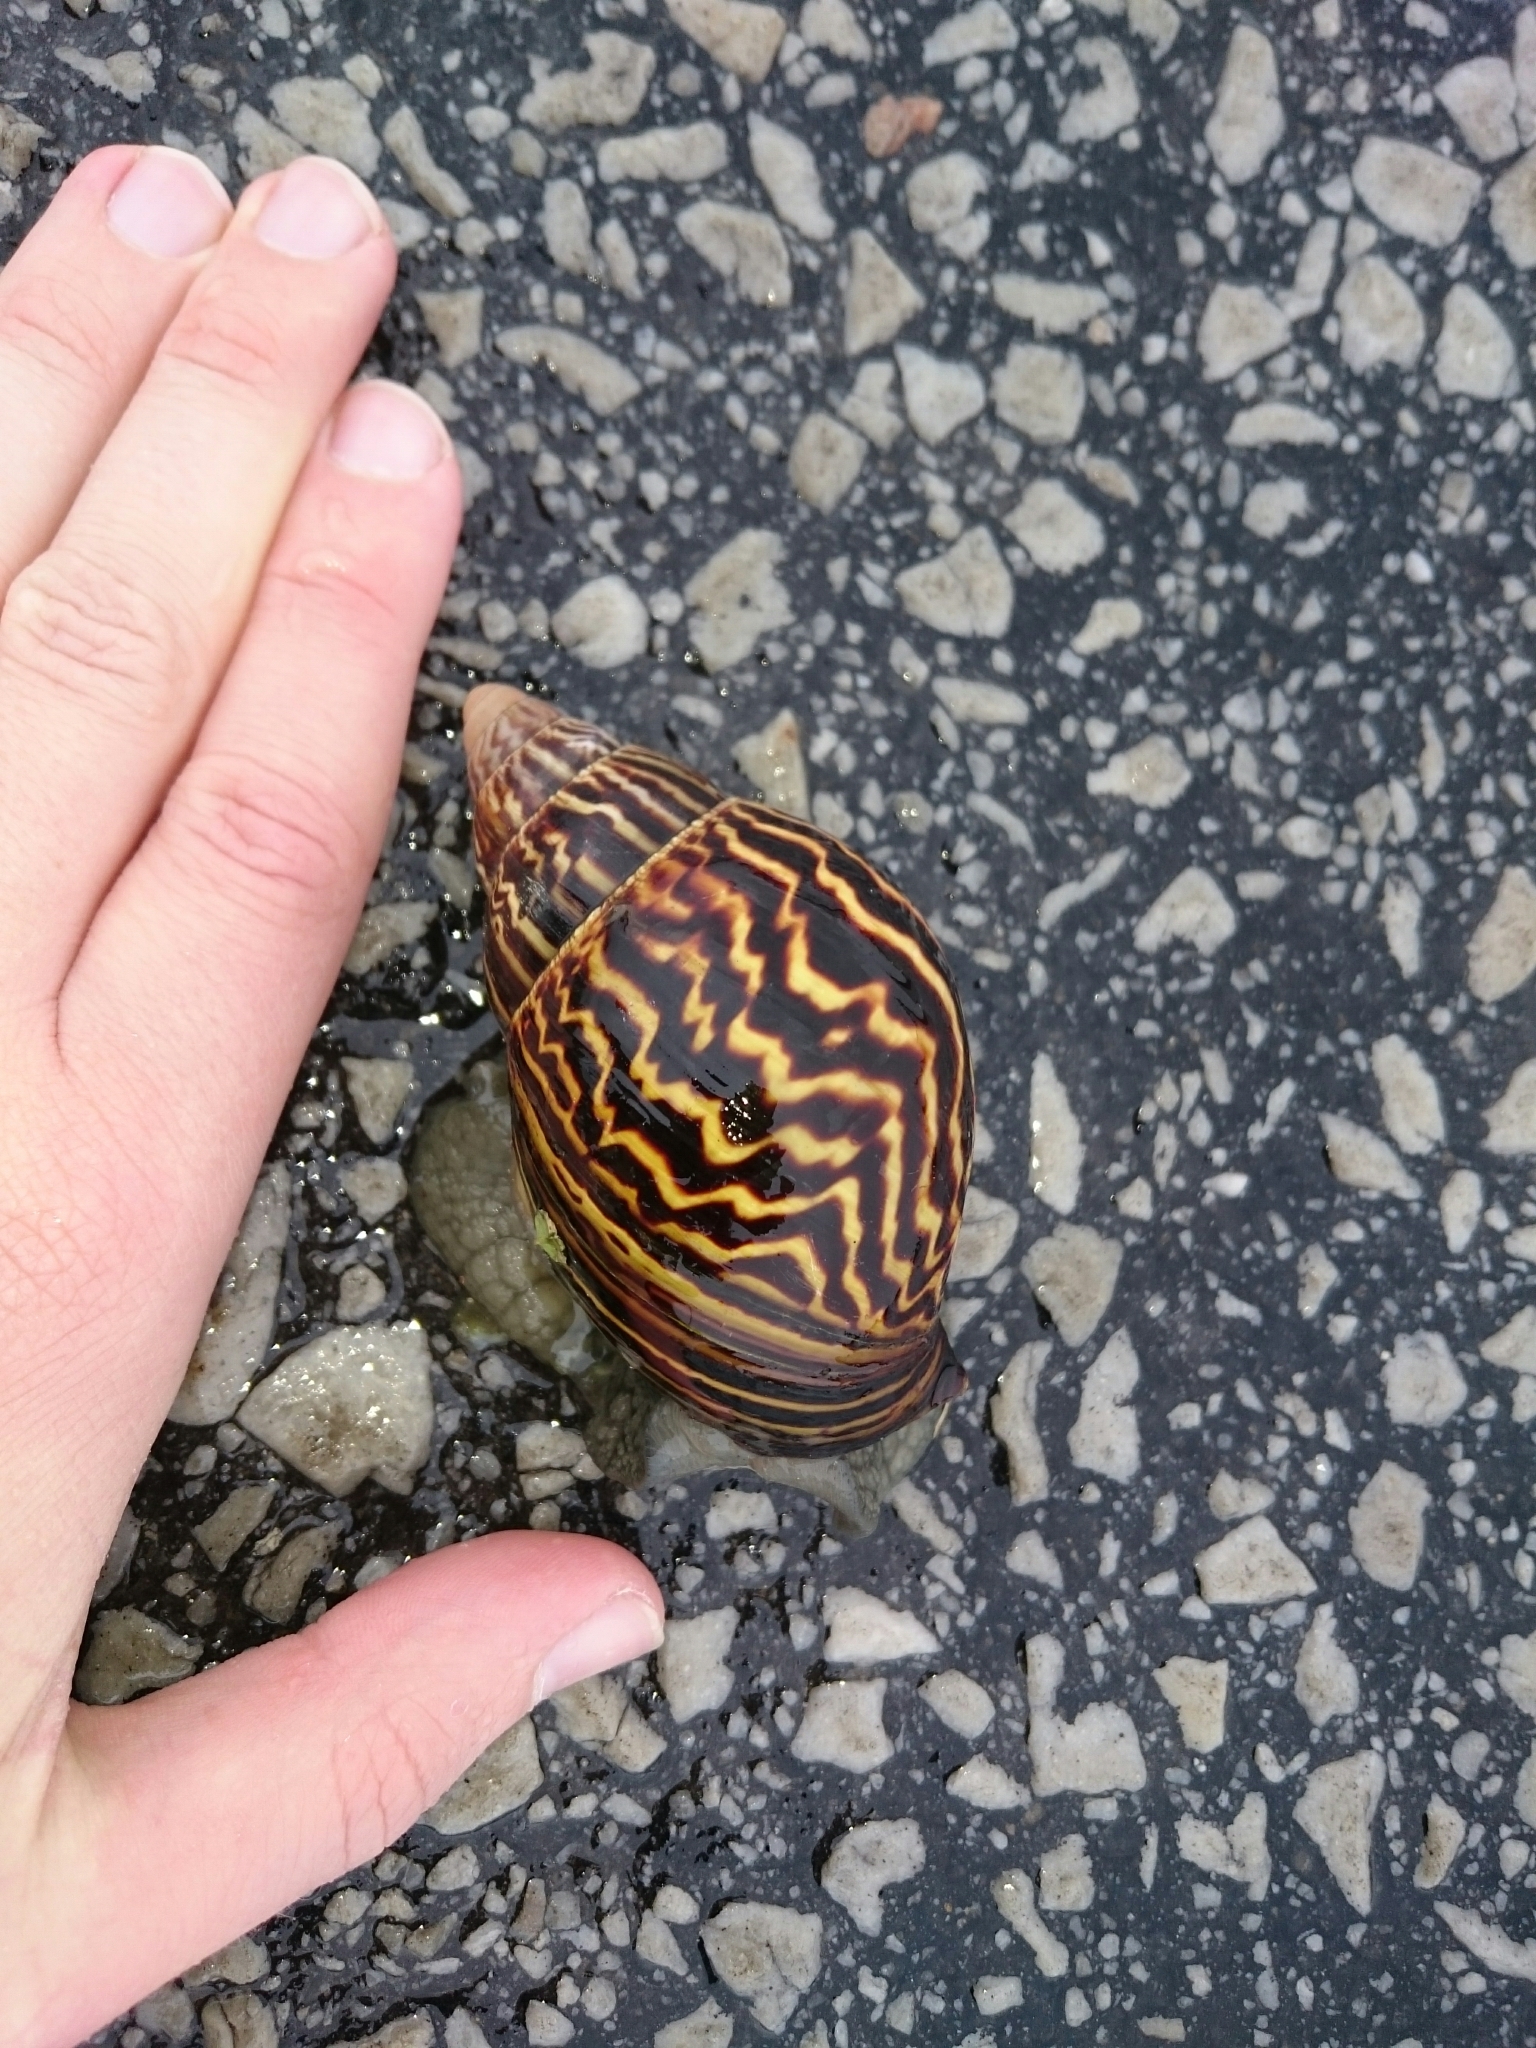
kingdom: Animalia
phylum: Mollusca
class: Gastropoda
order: Stylommatophora
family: Achatinidae
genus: Cochlitoma
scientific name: Cochlitoma zebra
